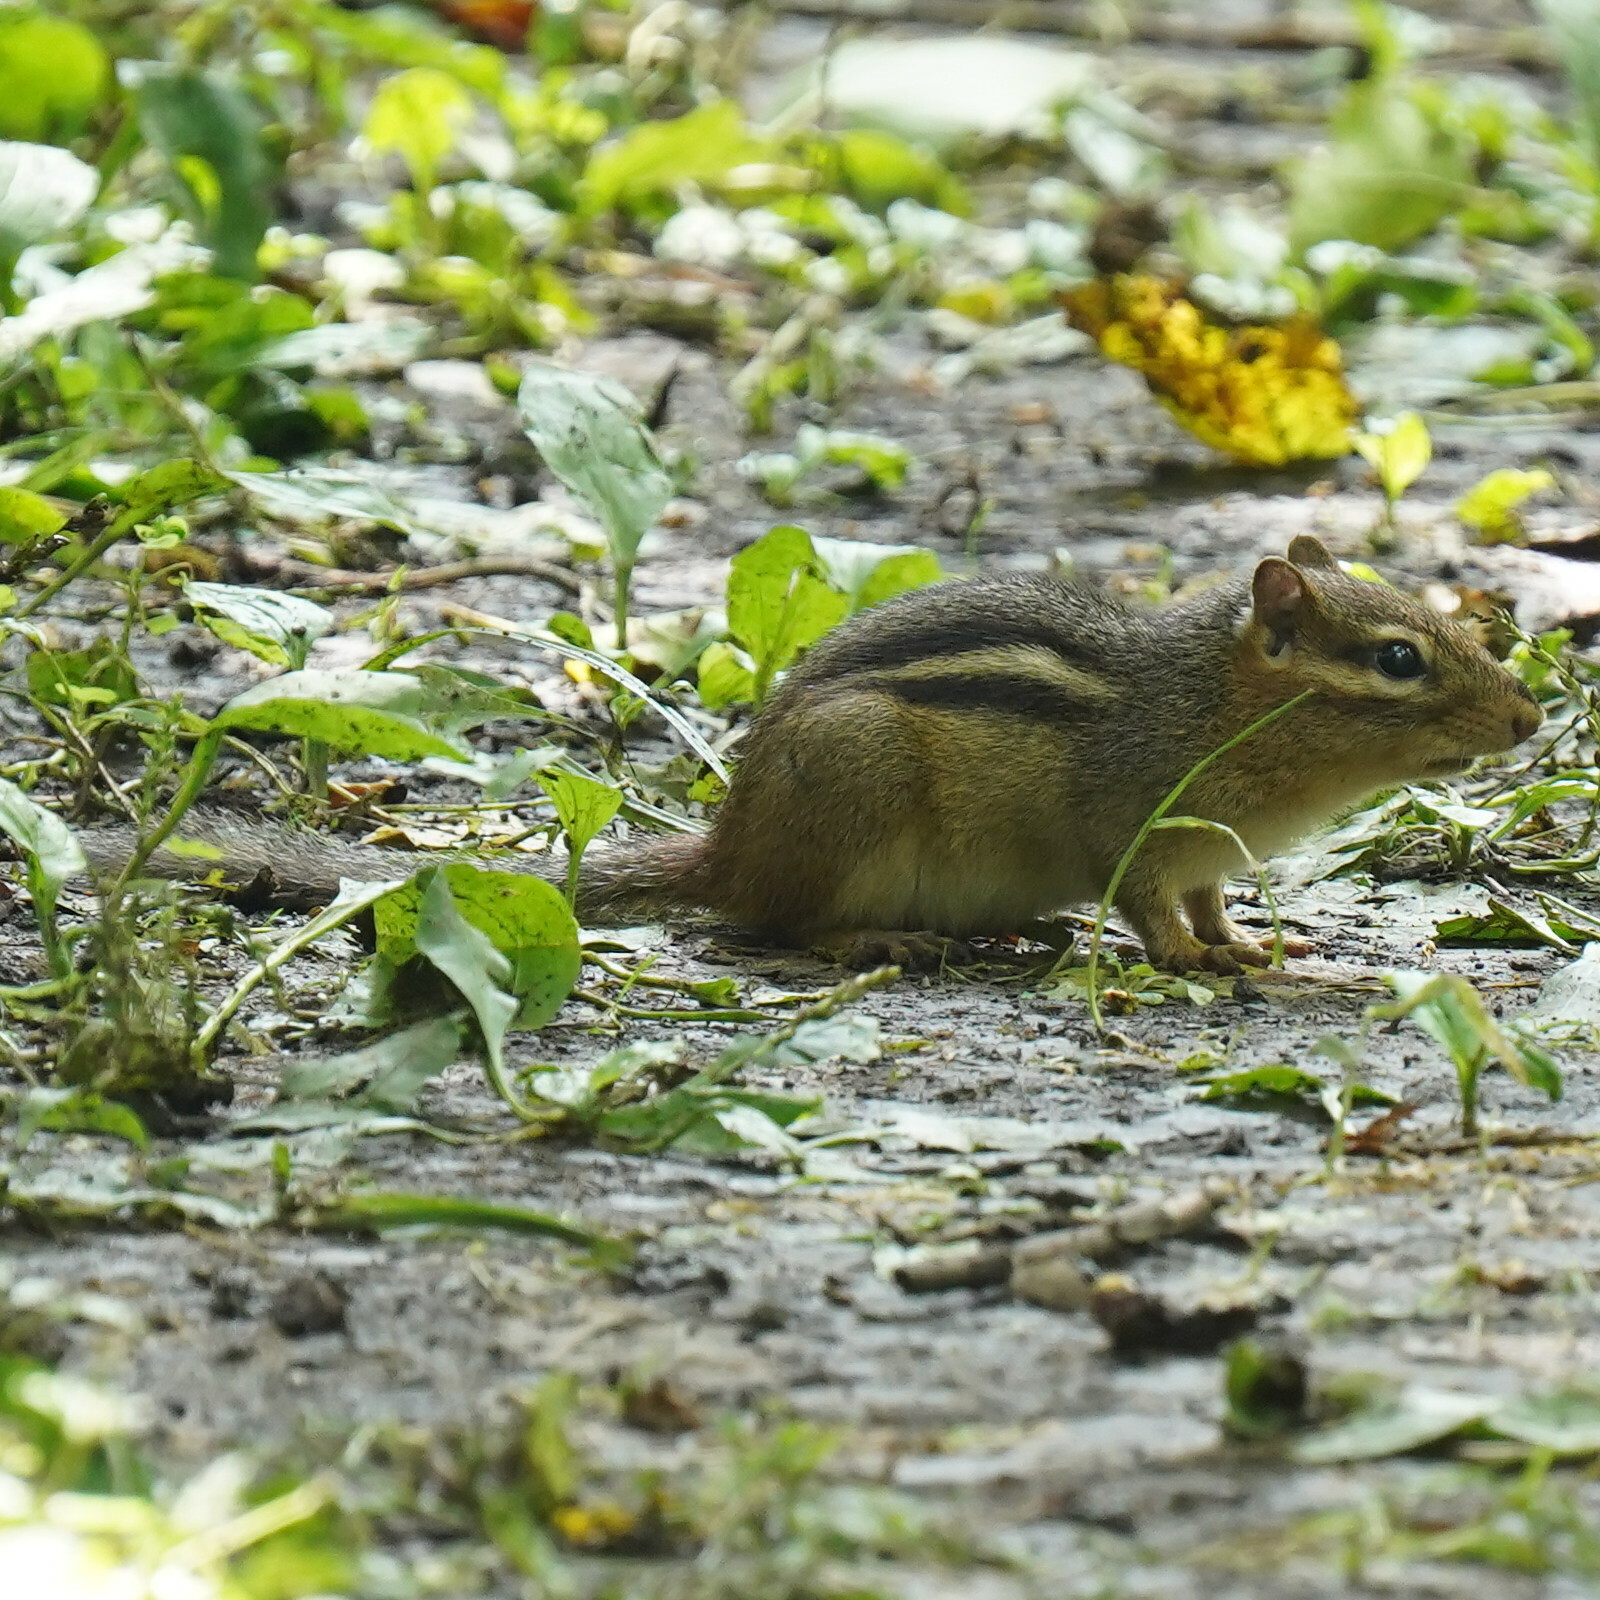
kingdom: Animalia
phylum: Chordata
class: Mammalia
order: Rodentia
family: Sciuridae
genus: Tamias
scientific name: Tamias striatus
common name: Eastern chipmunk
